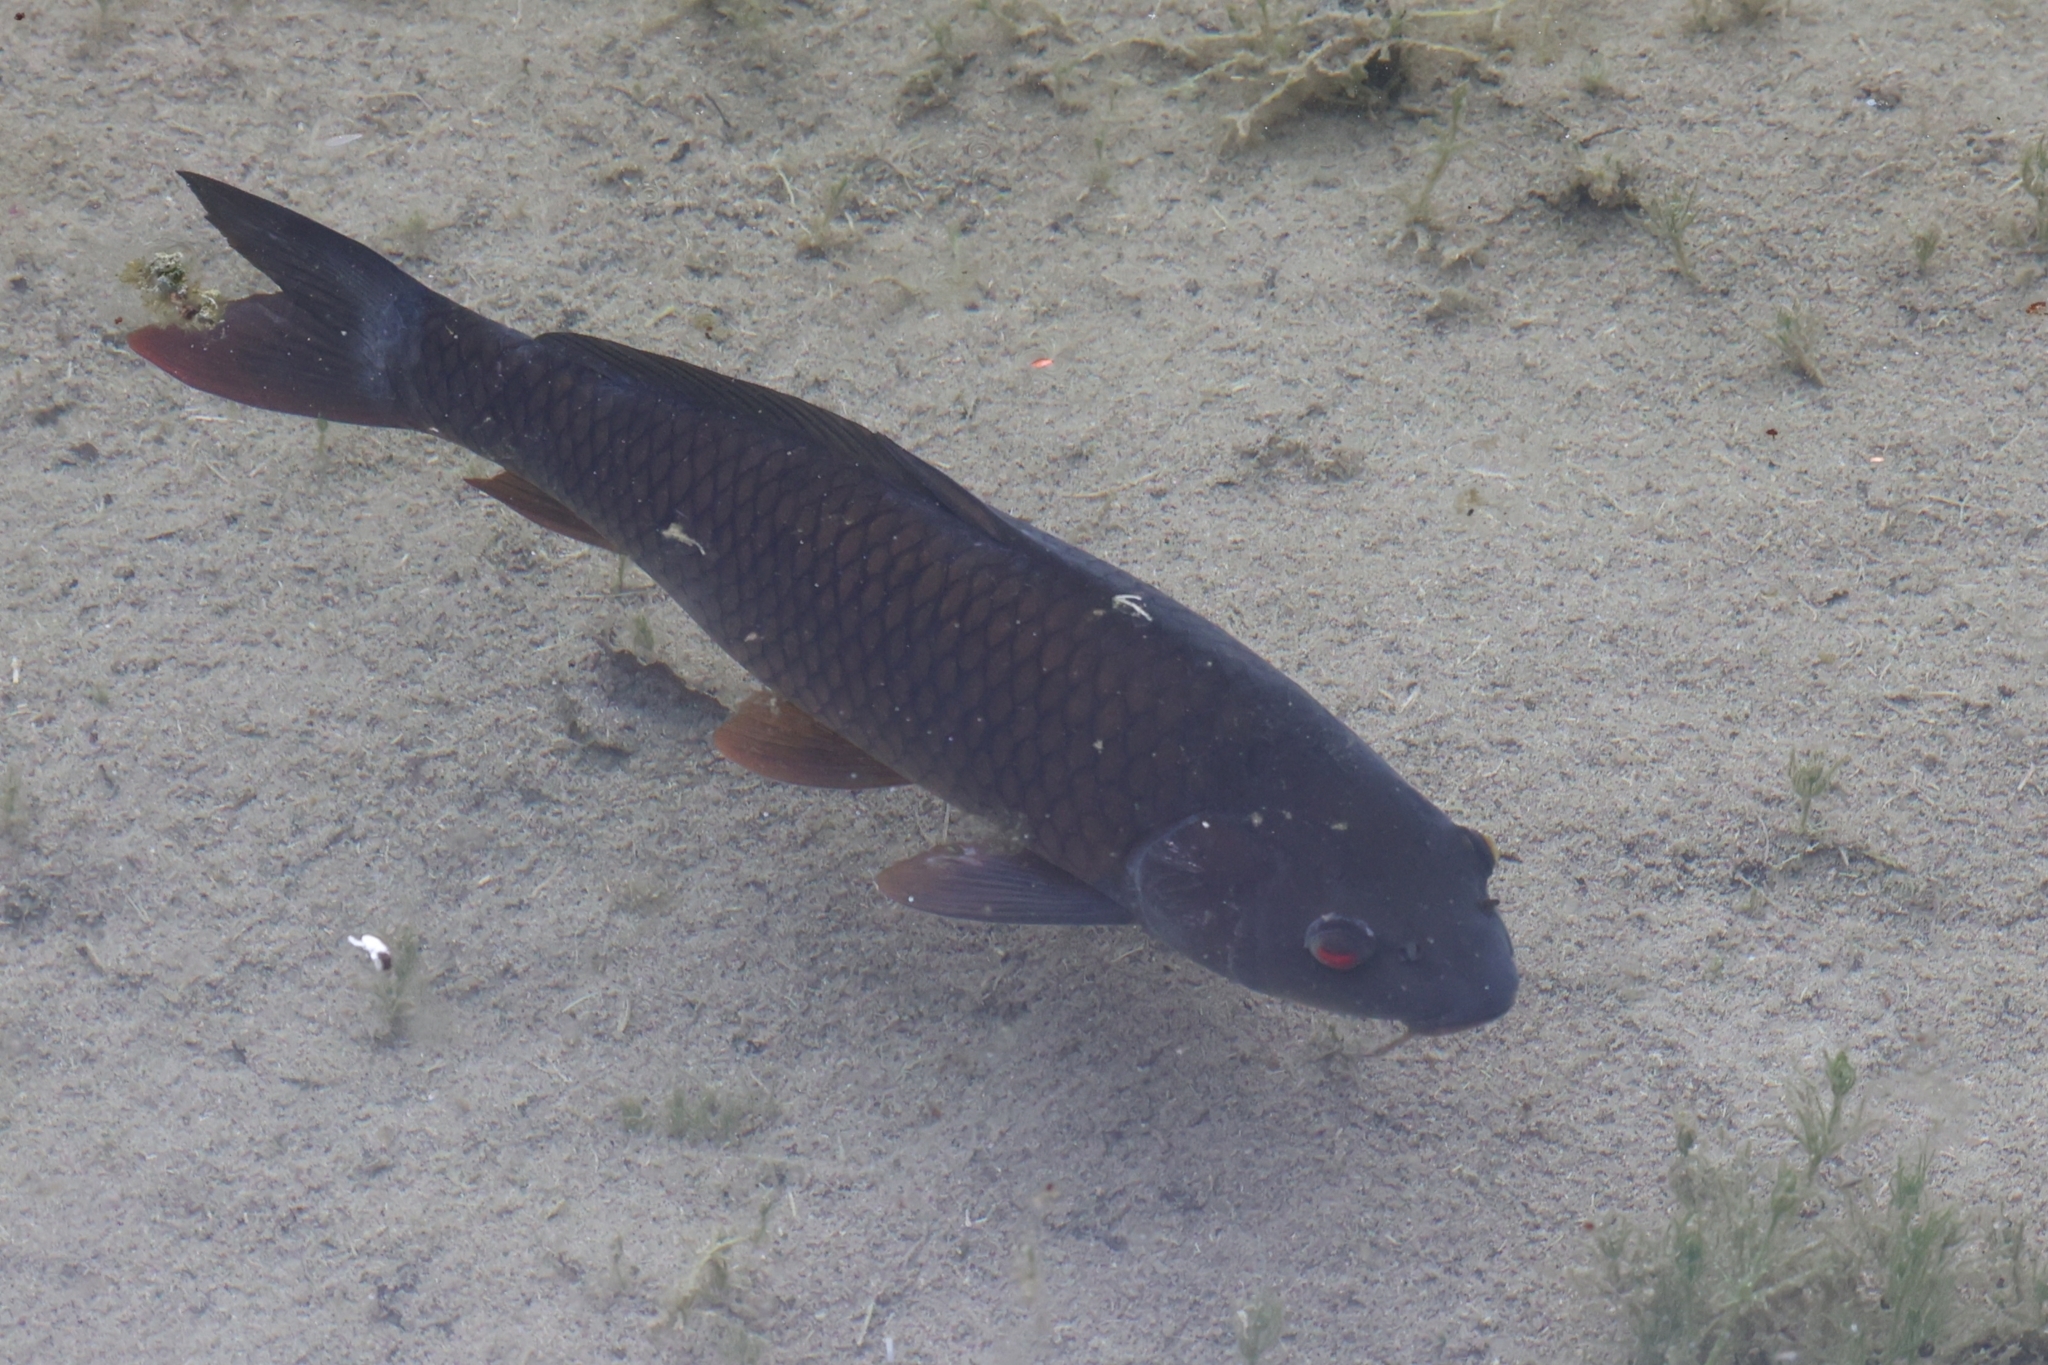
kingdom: Animalia
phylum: Chordata
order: Cypriniformes
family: Cyprinidae
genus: Cyprinus
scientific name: Cyprinus carpio
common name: Common carp
